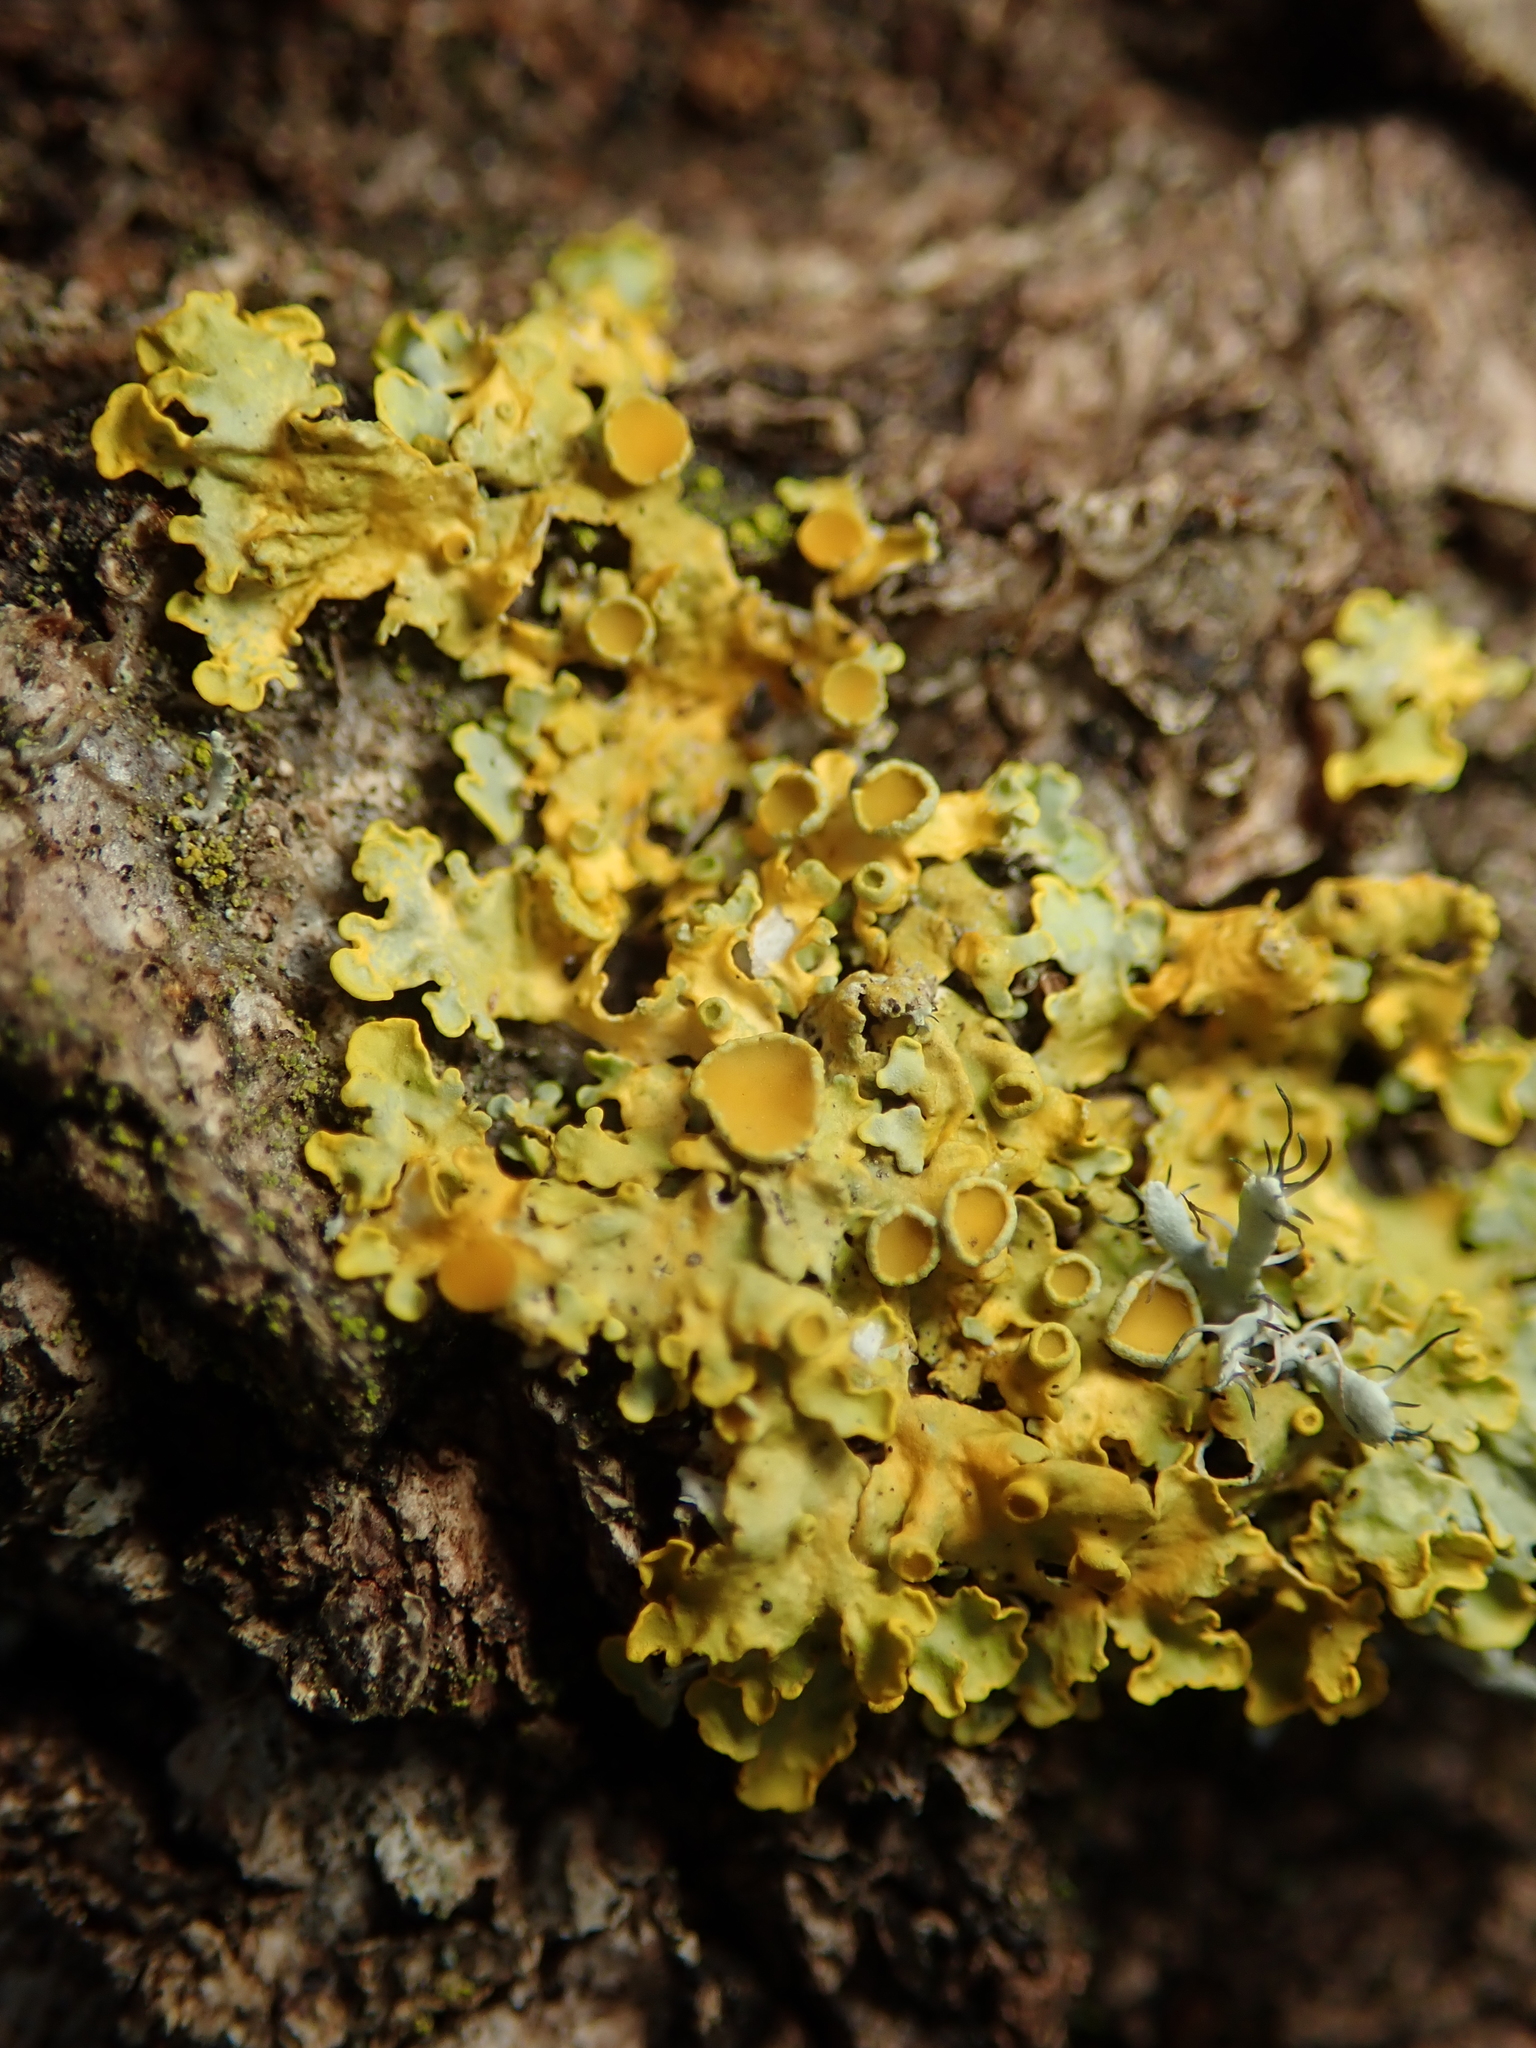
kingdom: Fungi
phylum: Ascomycota
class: Lecanoromycetes
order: Teloschistales
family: Teloschistaceae
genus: Xanthoria
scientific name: Xanthoria parietina
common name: Common orange lichen
